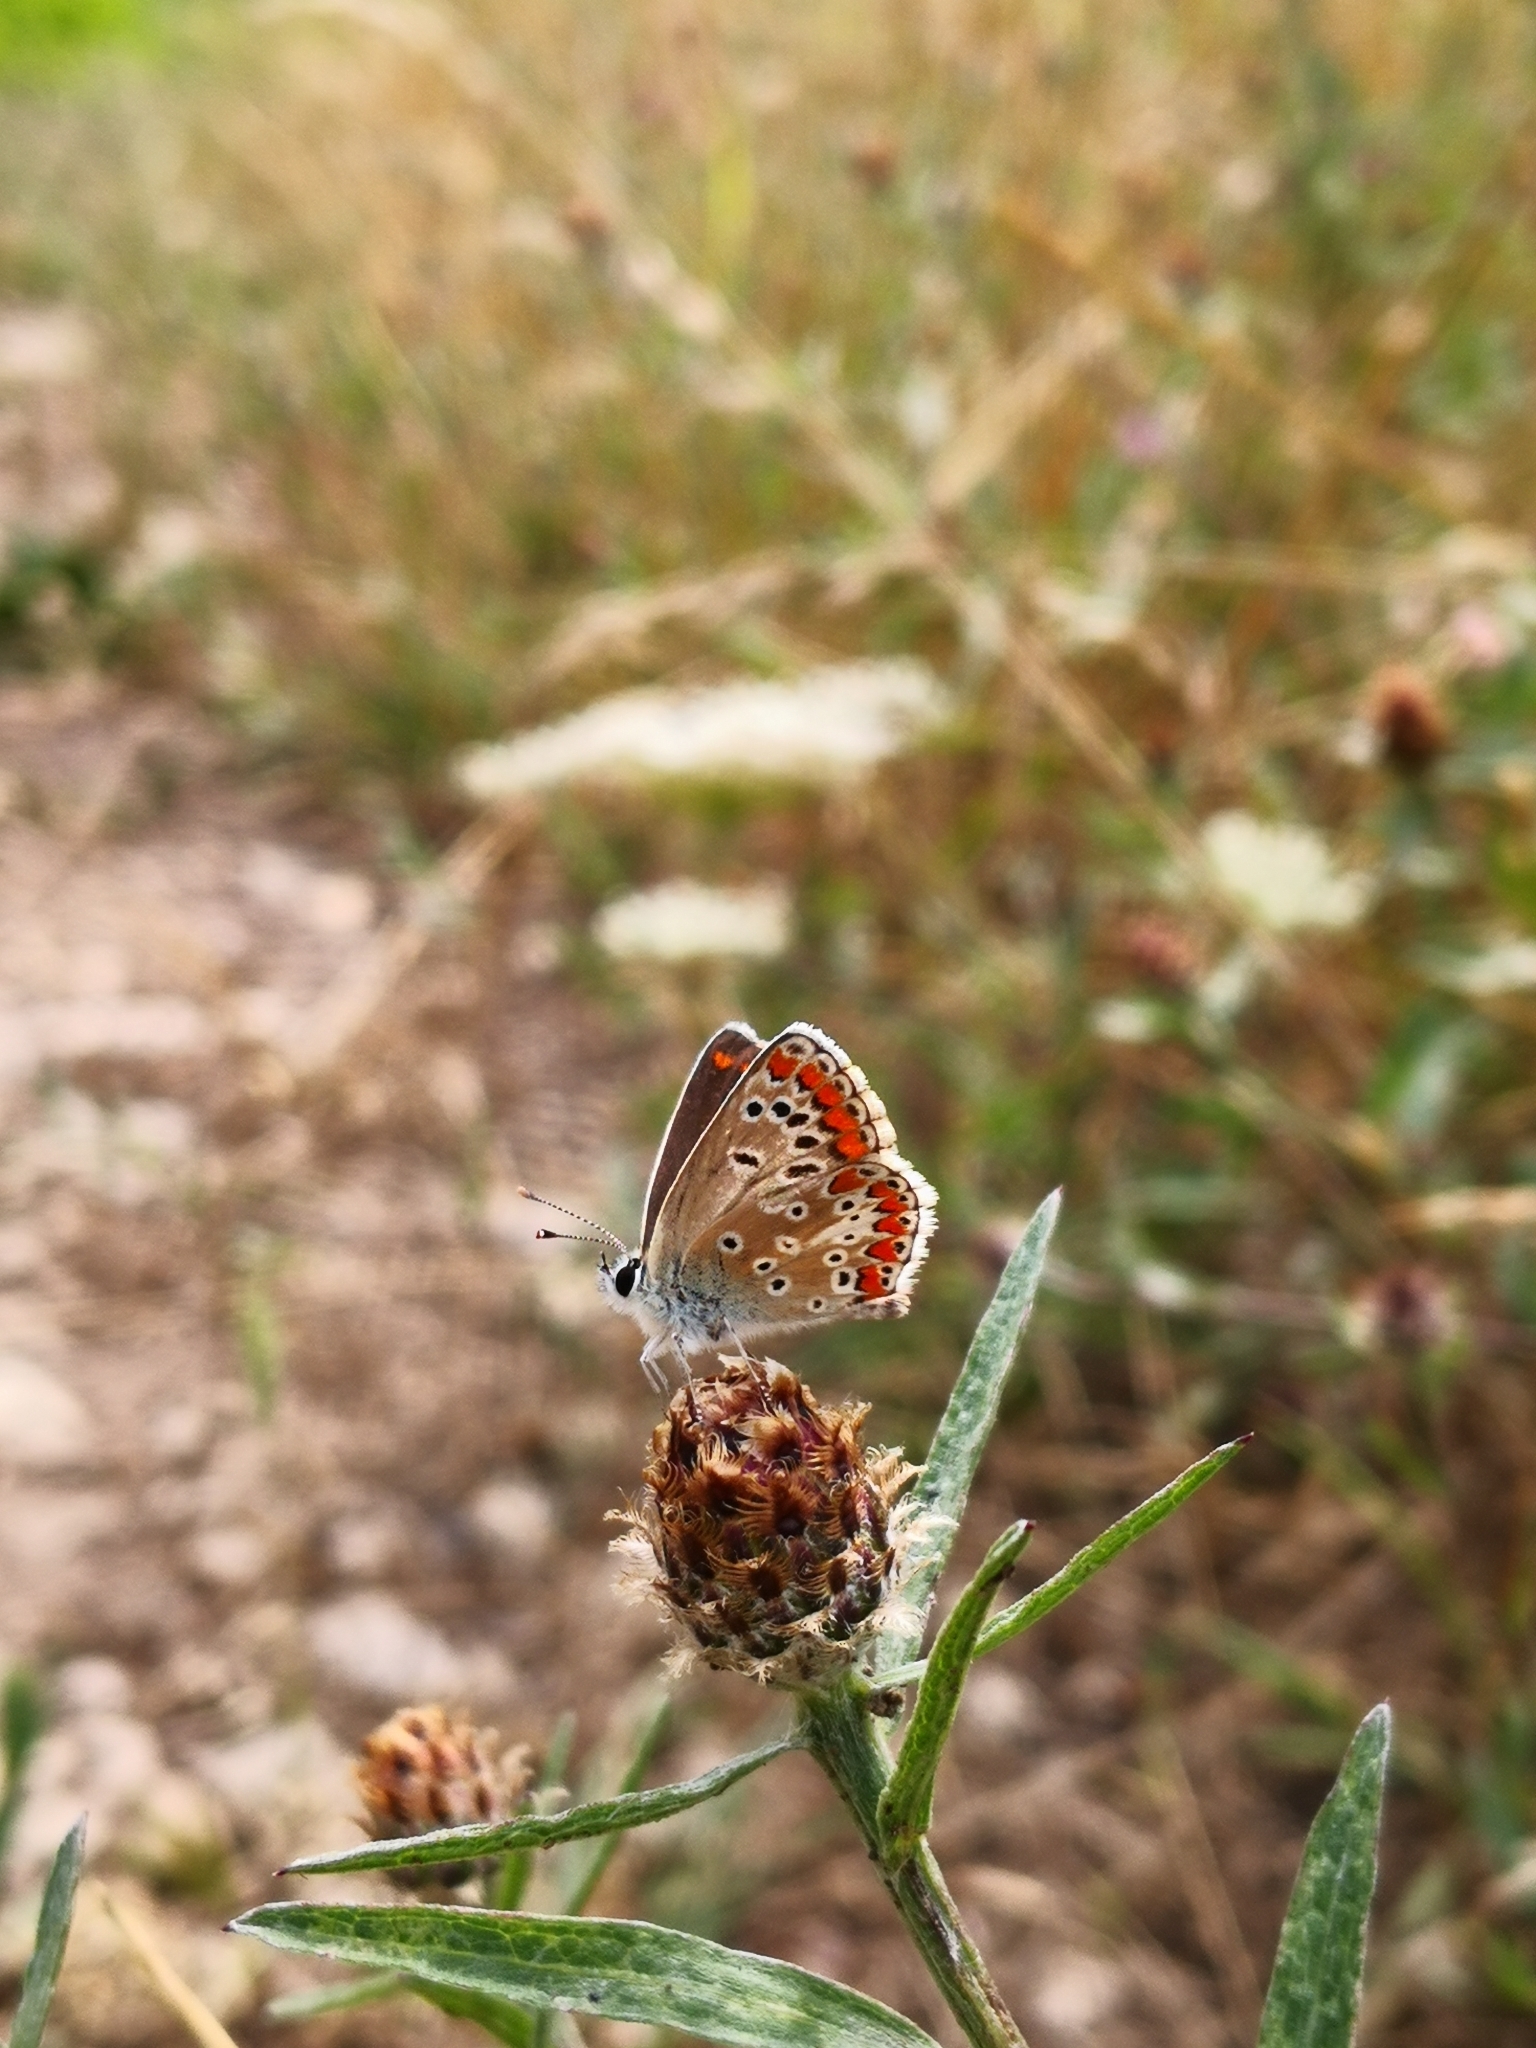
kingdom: Animalia
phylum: Arthropoda
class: Insecta
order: Lepidoptera
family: Lycaenidae
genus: Aricia
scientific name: Aricia agestis
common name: Brown argus
